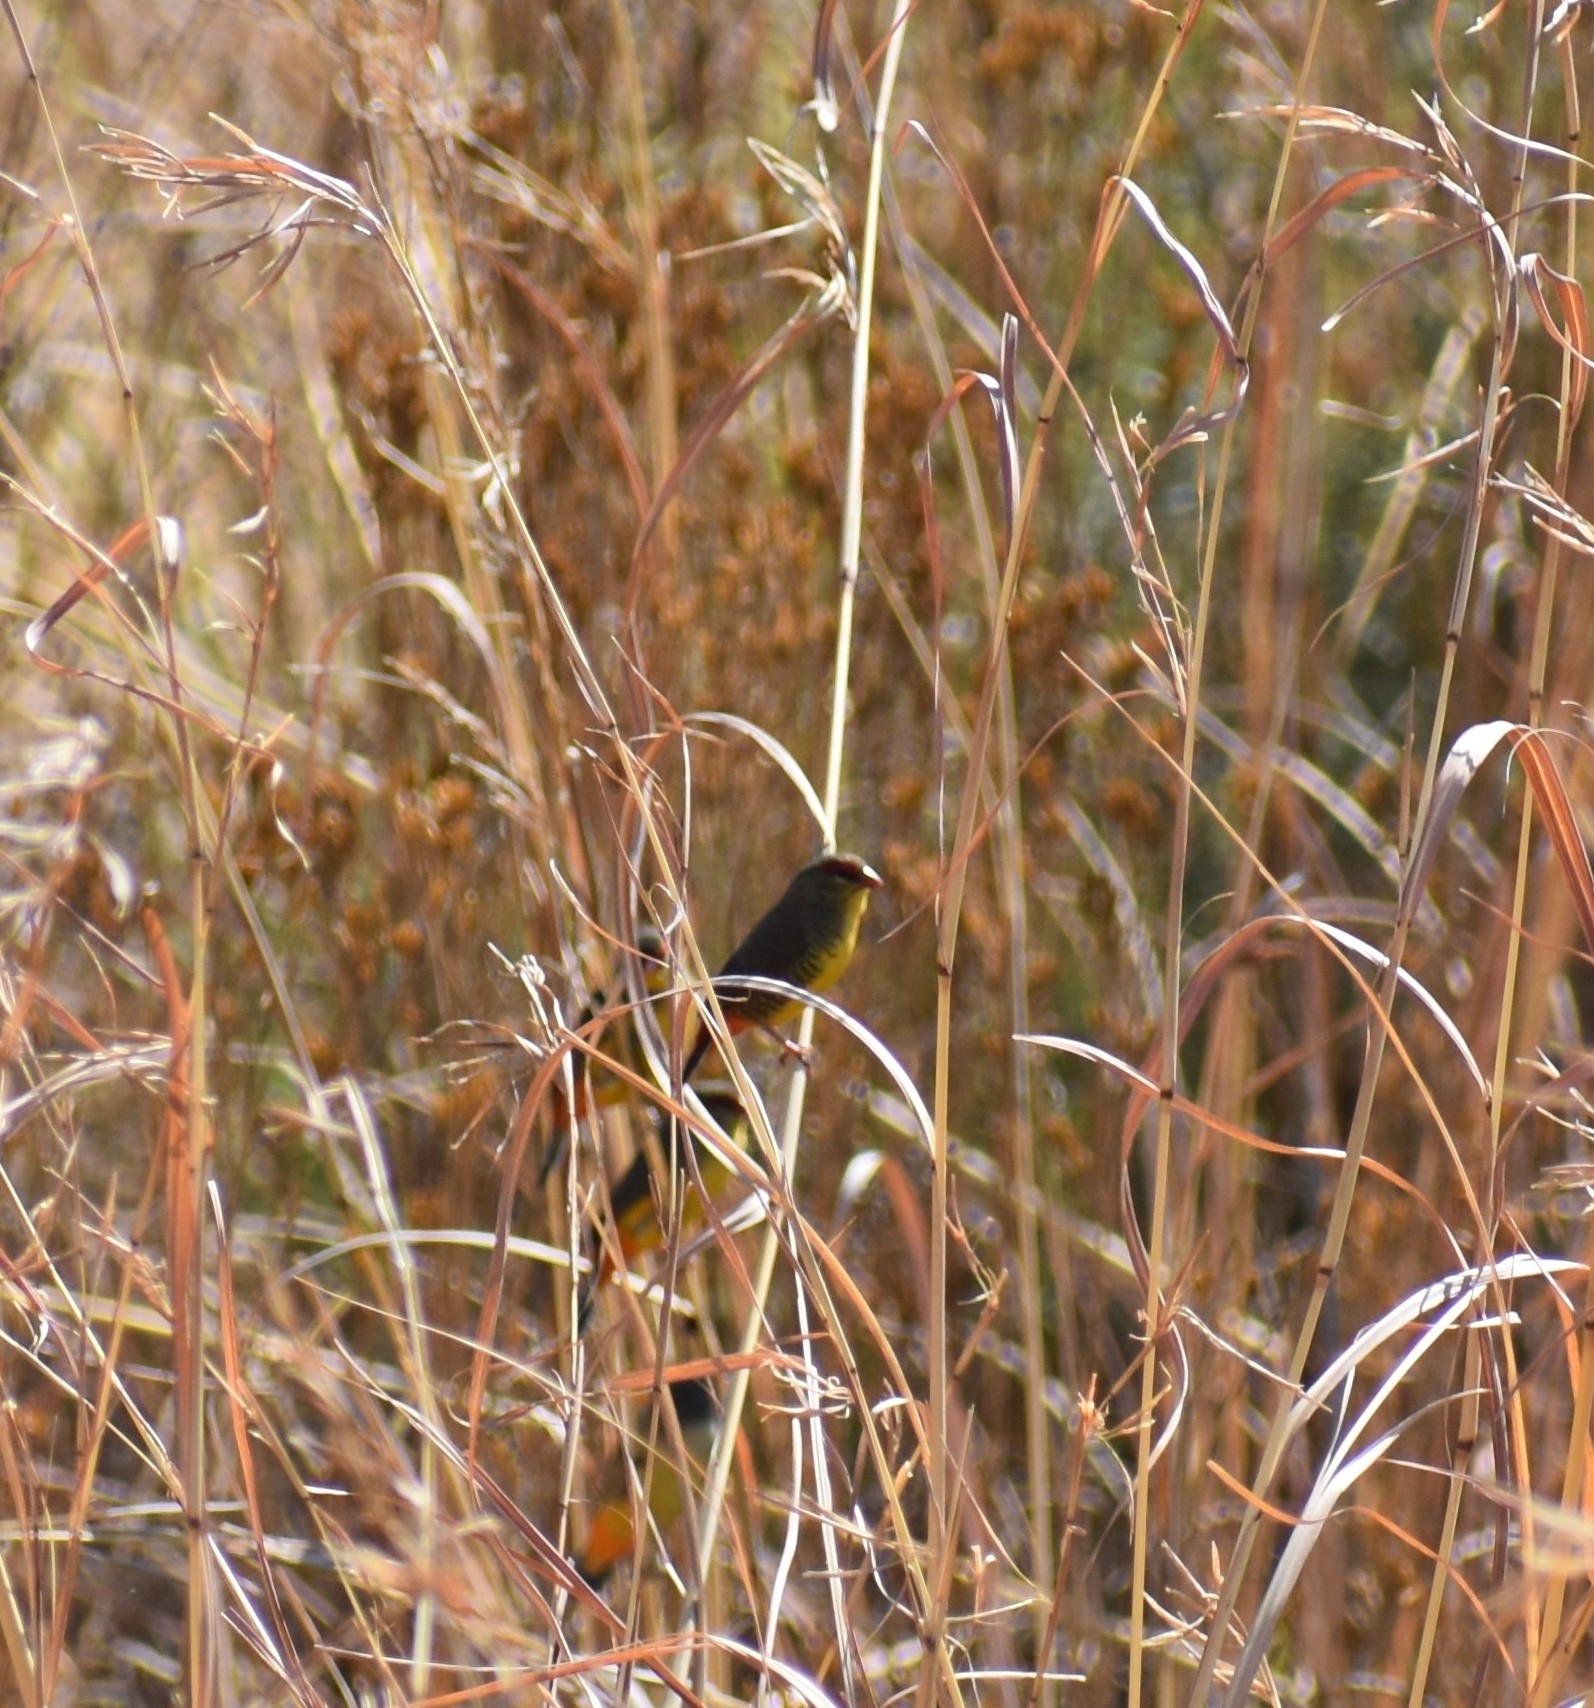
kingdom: Animalia
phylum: Chordata
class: Aves
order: Passeriformes
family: Estrildidae
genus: Amandava
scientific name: Amandava subflava
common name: Orange-breasted waxbill
